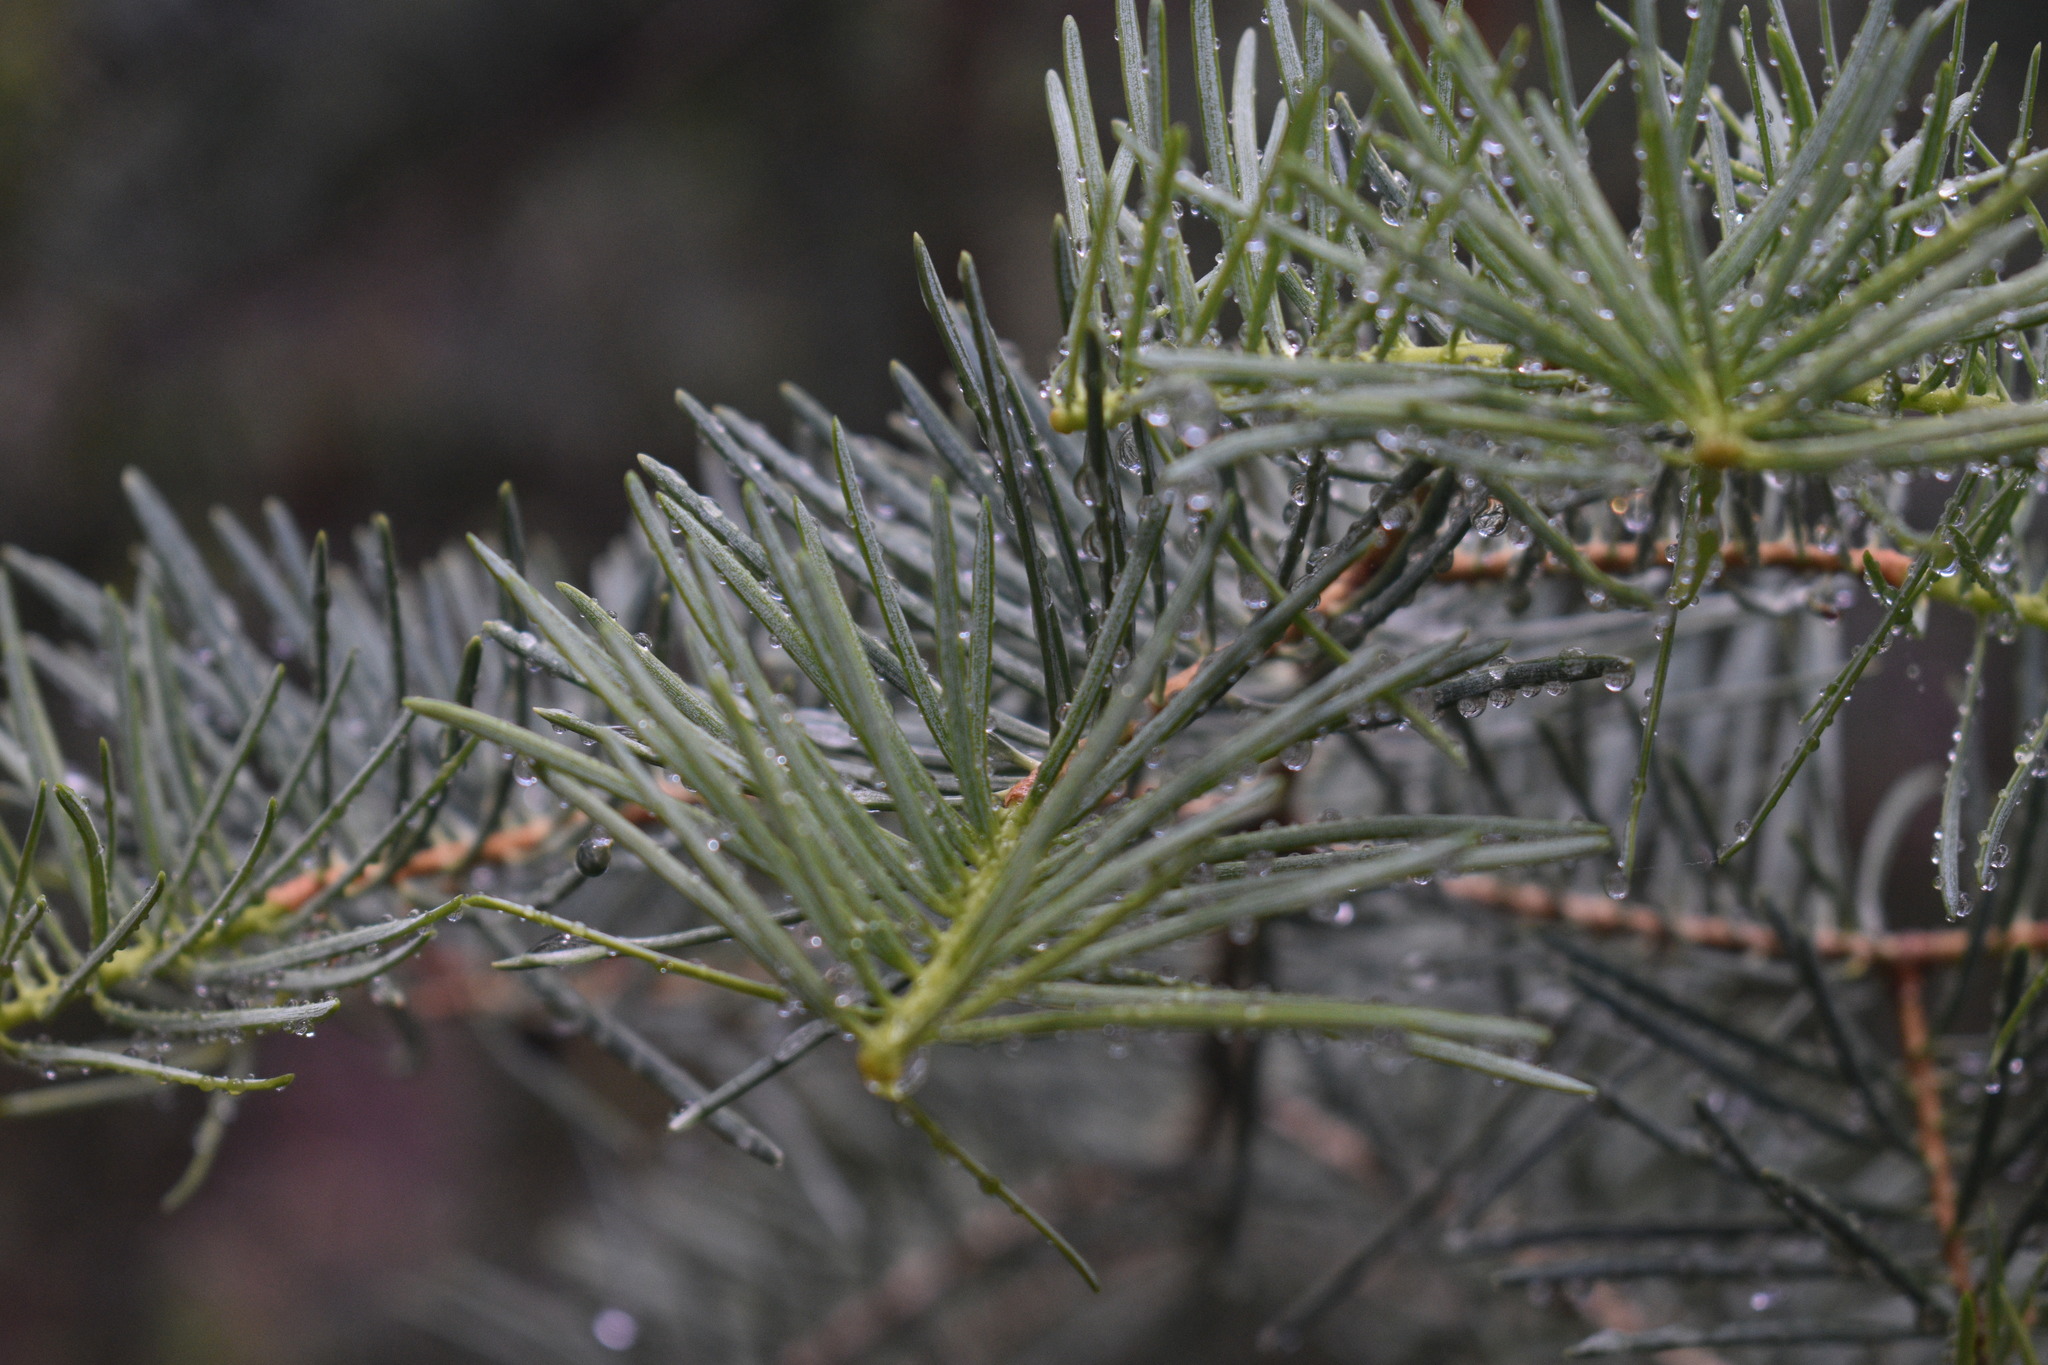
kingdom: Plantae
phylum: Tracheophyta
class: Pinopsida
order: Pinales
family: Pinaceae
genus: Abies
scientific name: Abies concolor
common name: Colorado fir
